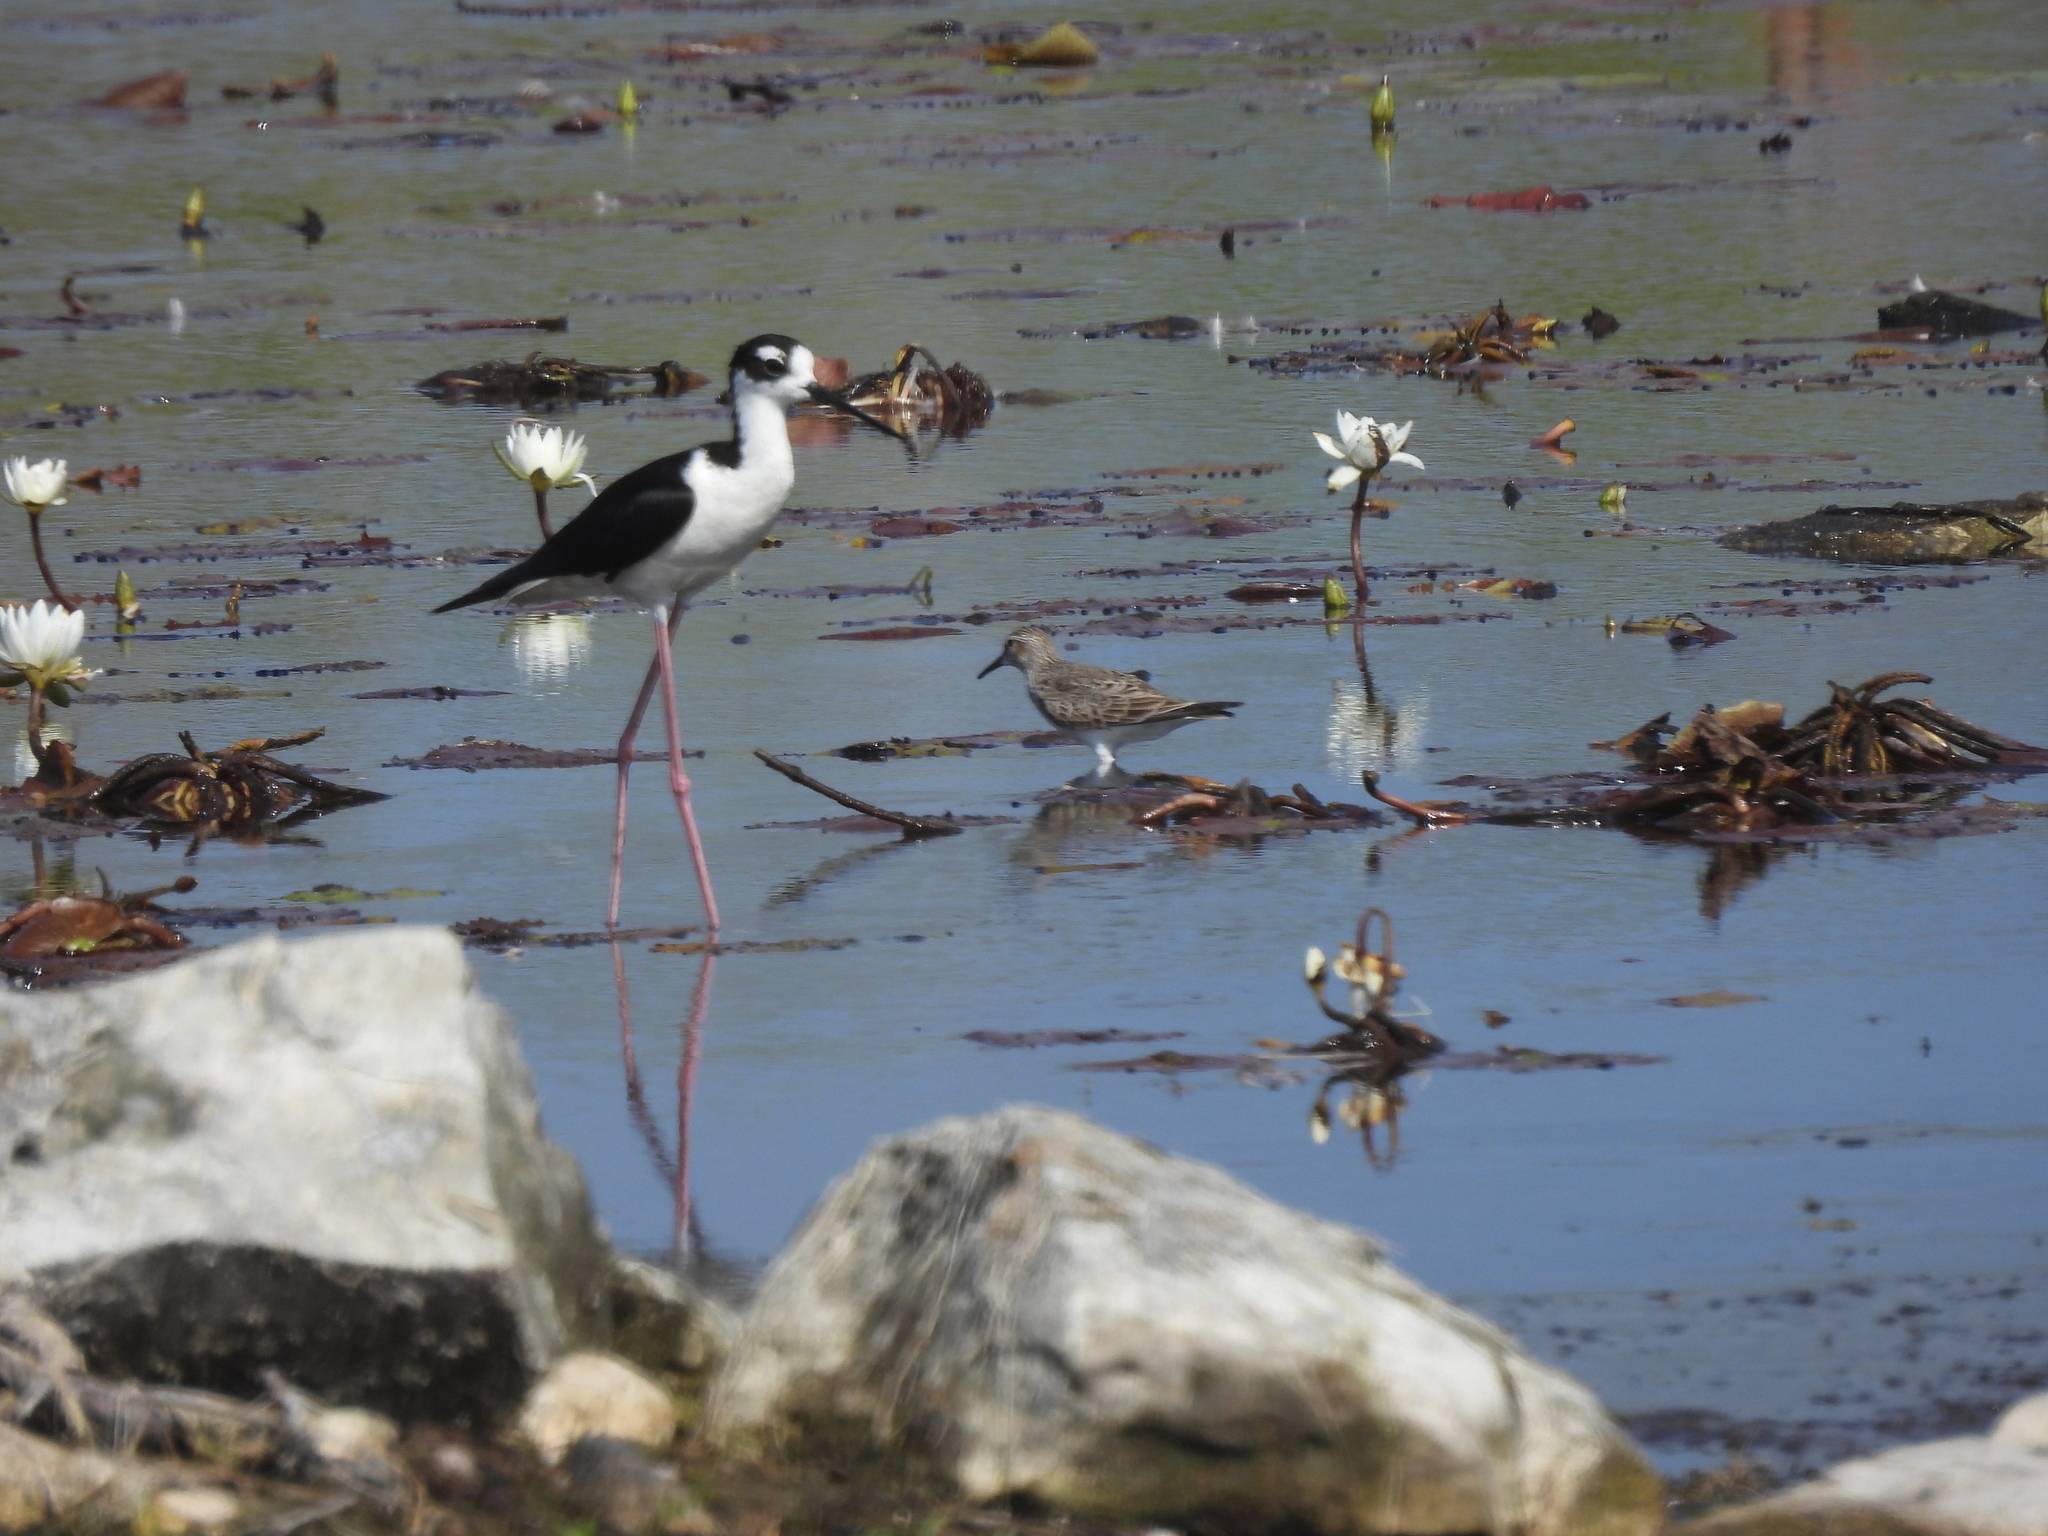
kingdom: Animalia
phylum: Chordata
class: Aves
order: Charadriiformes
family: Scolopacidae
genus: Calidris
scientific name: Calidris fuscicollis
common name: White-rumped sandpiper
